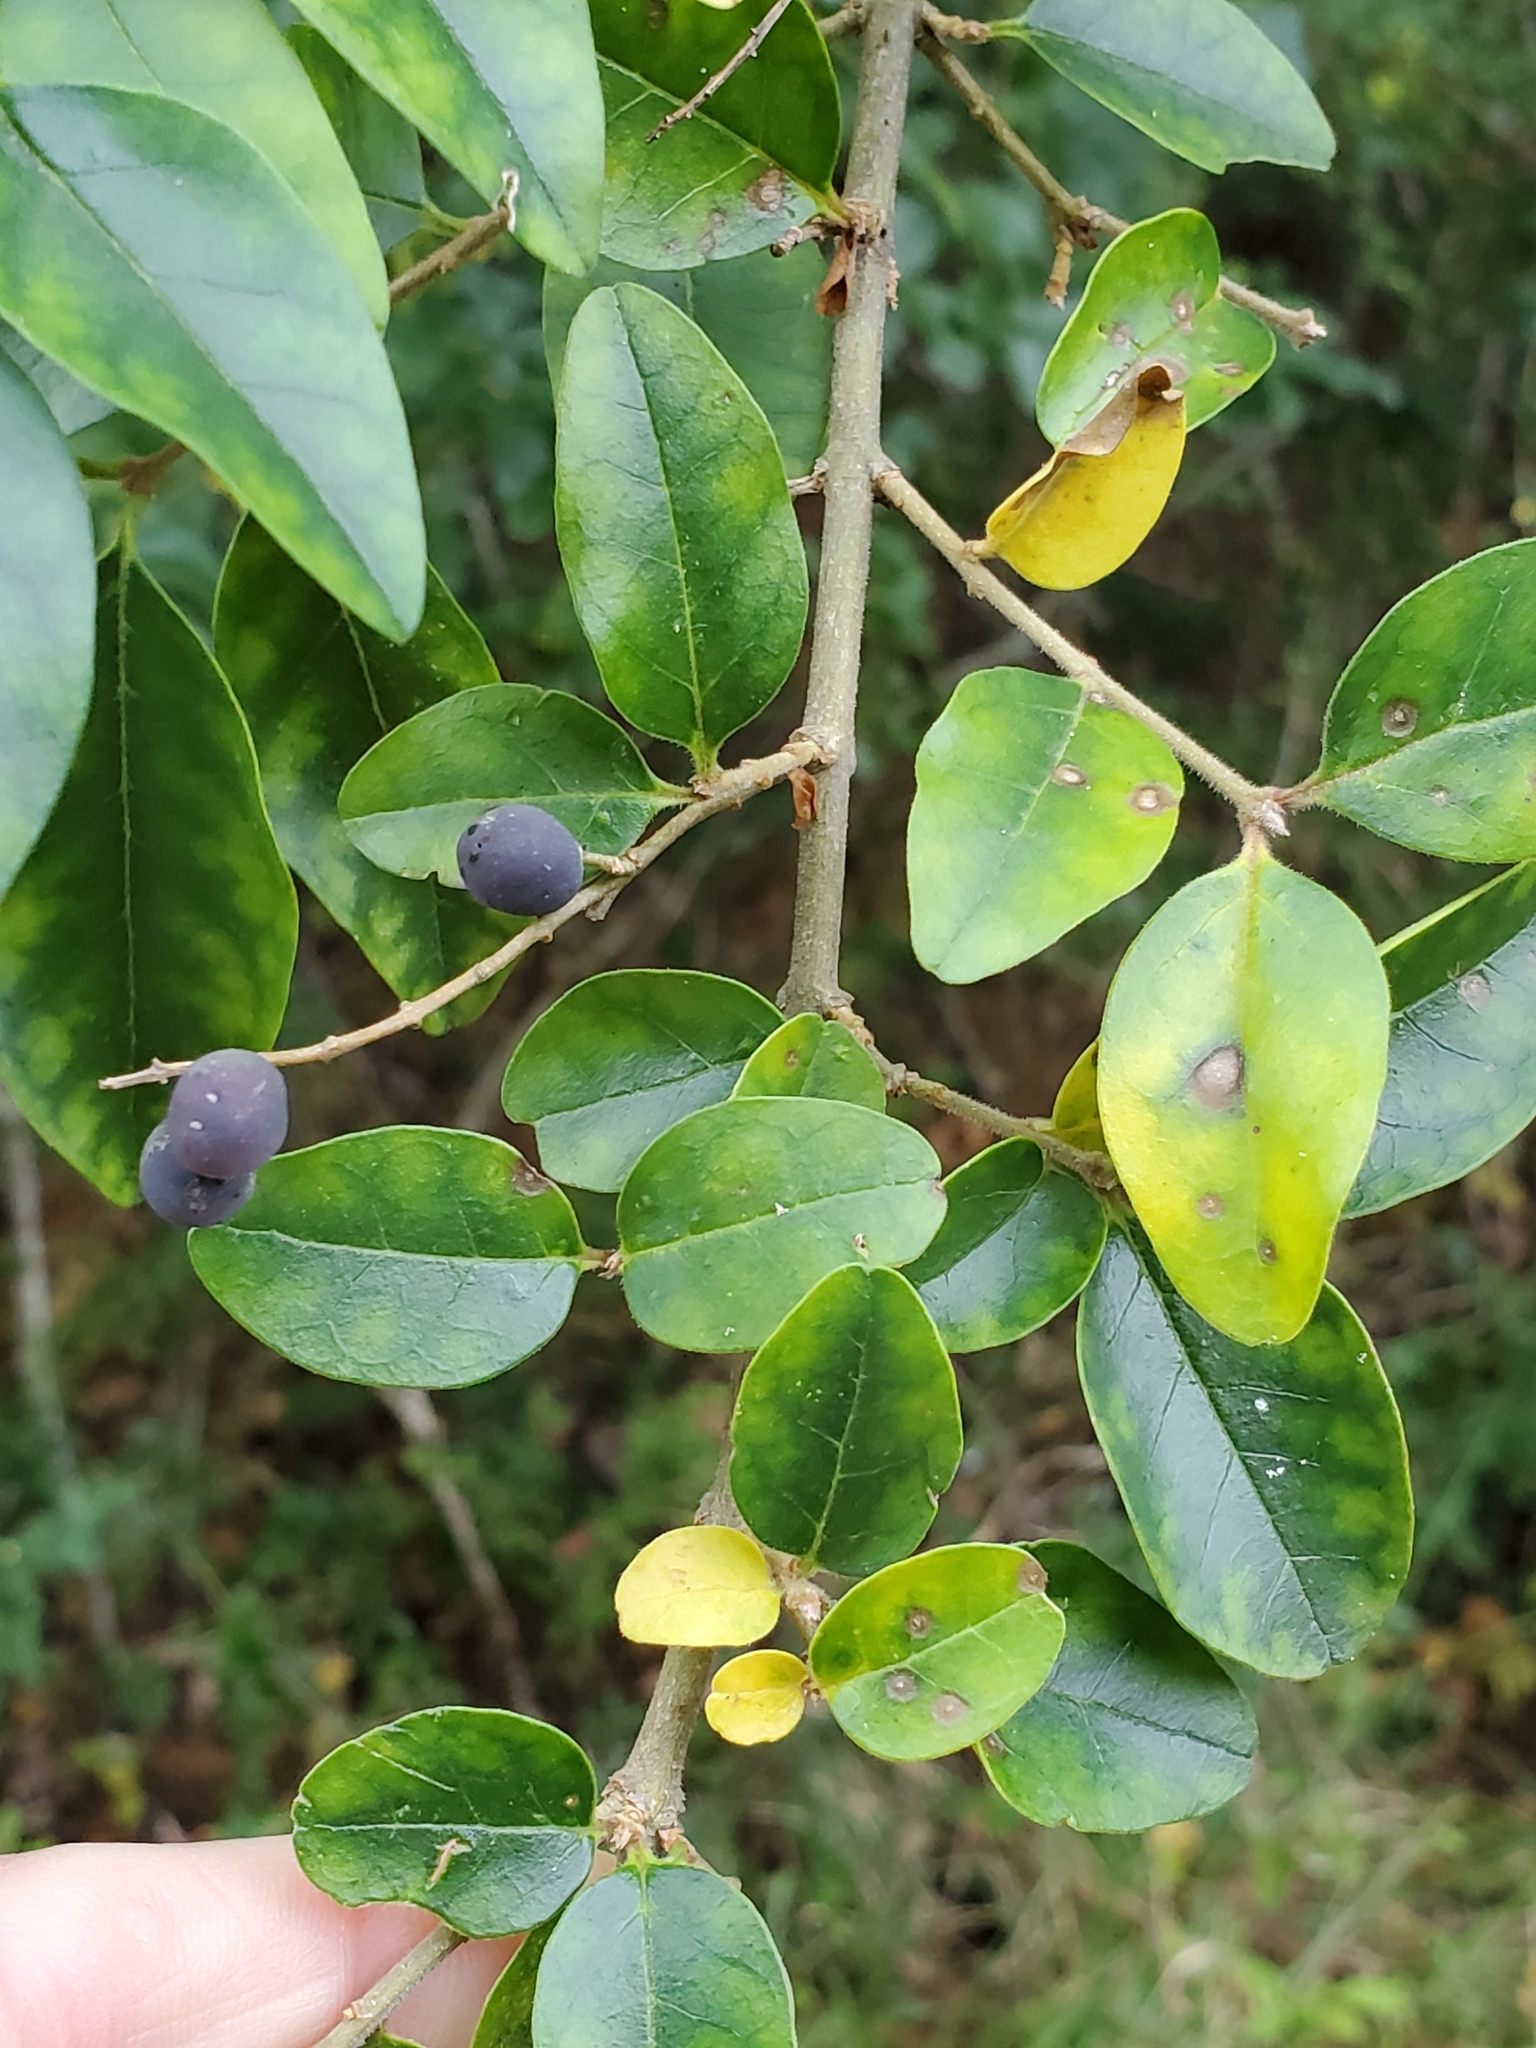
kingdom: Plantae
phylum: Tracheophyta
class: Magnoliopsida
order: Lamiales
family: Oleaceae
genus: Ligustrum
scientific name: Ligustrum sinense
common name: Chinese privet
